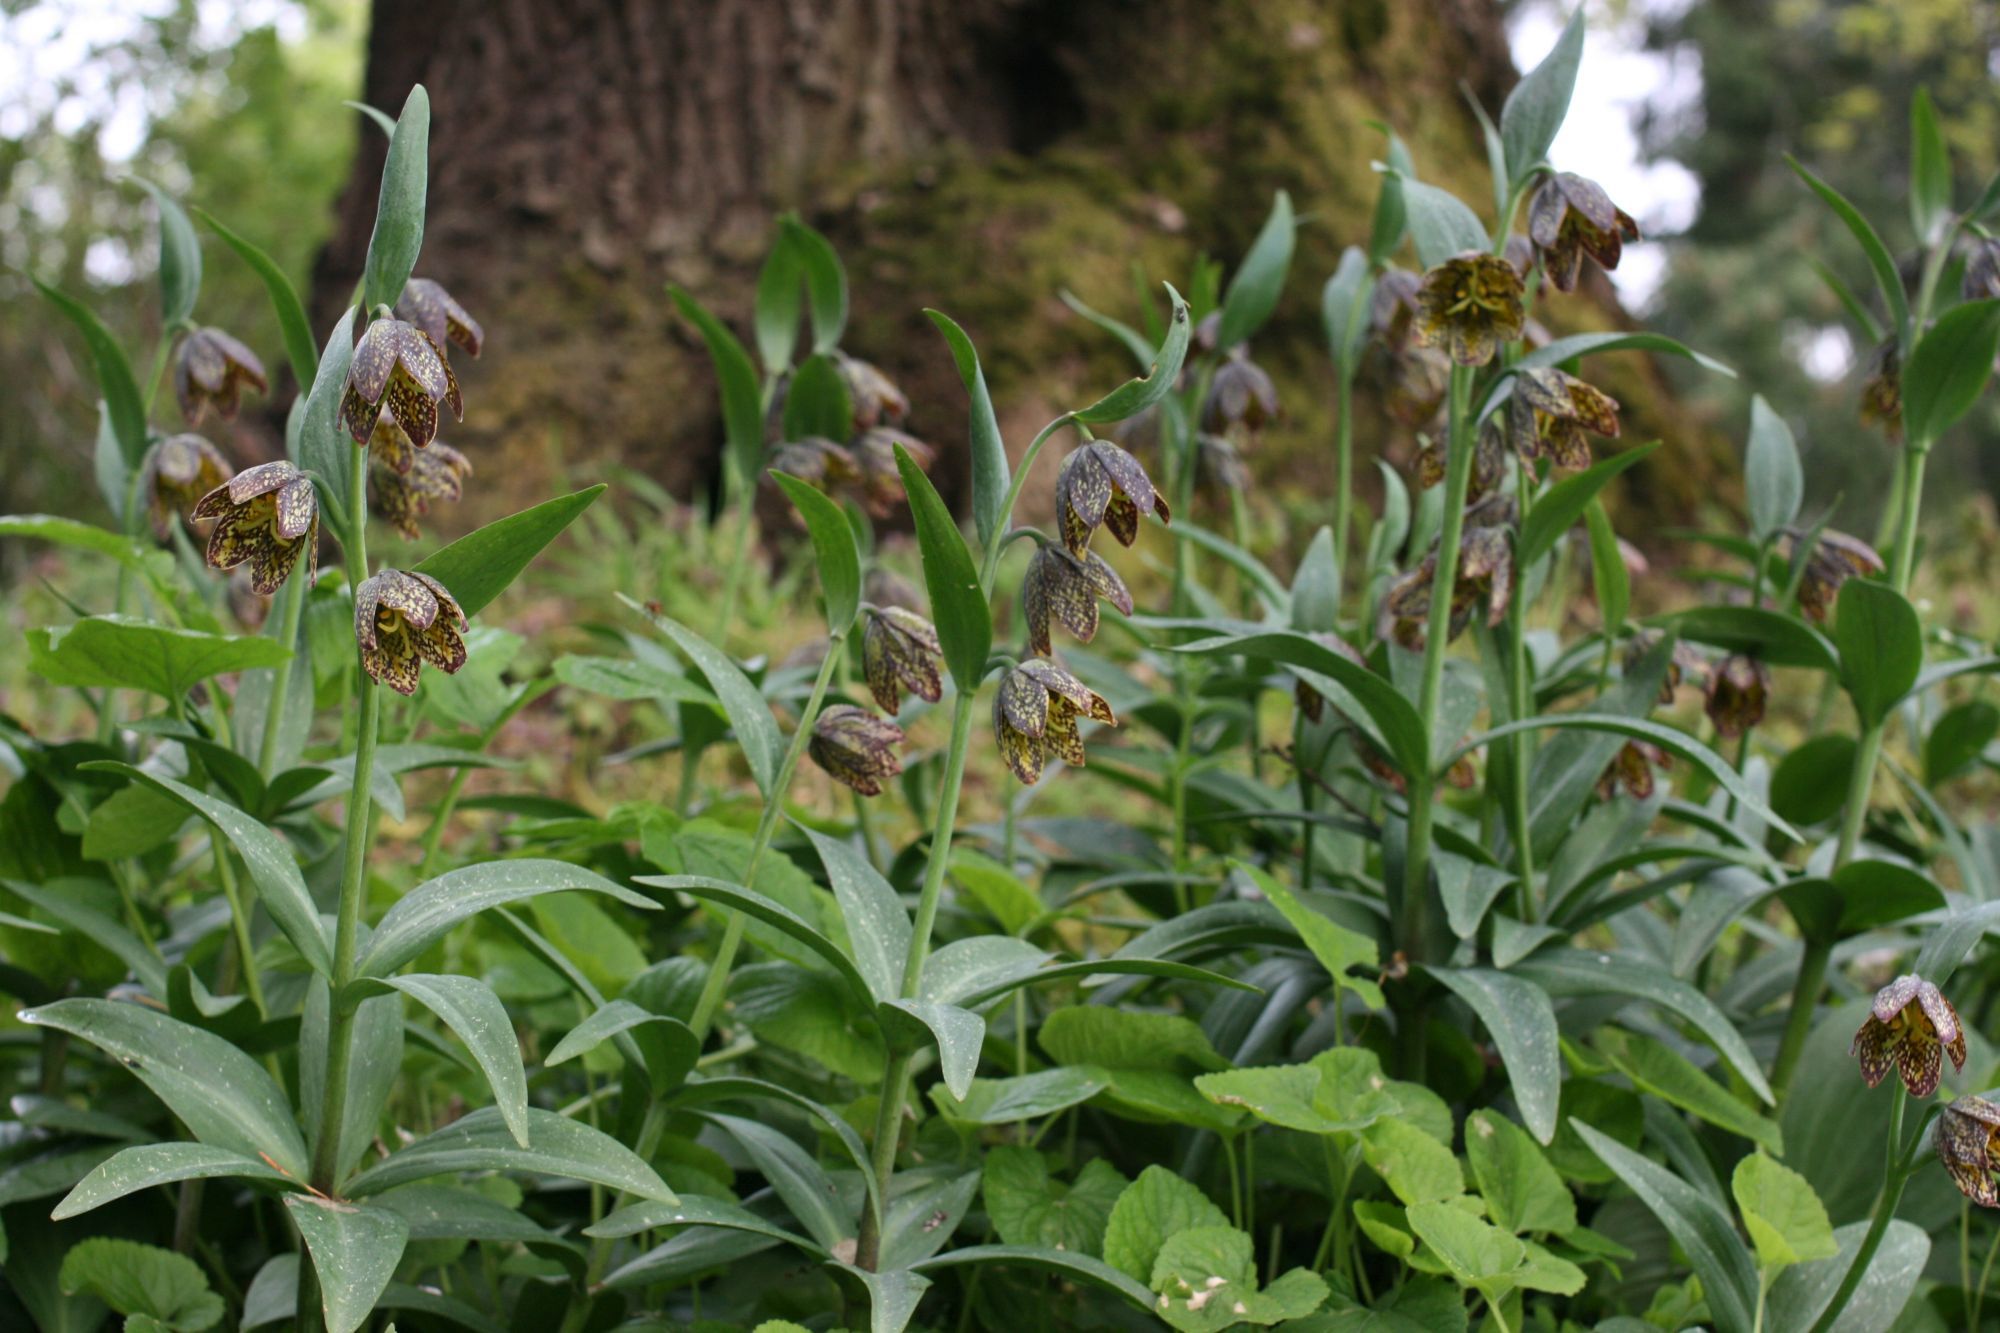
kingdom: Plantae
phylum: Tracheophyta
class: Liliopsida
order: Liliales
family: Liliaceae
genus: Fritillaria
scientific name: Fritillaria affinis
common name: Ojai fritillary
